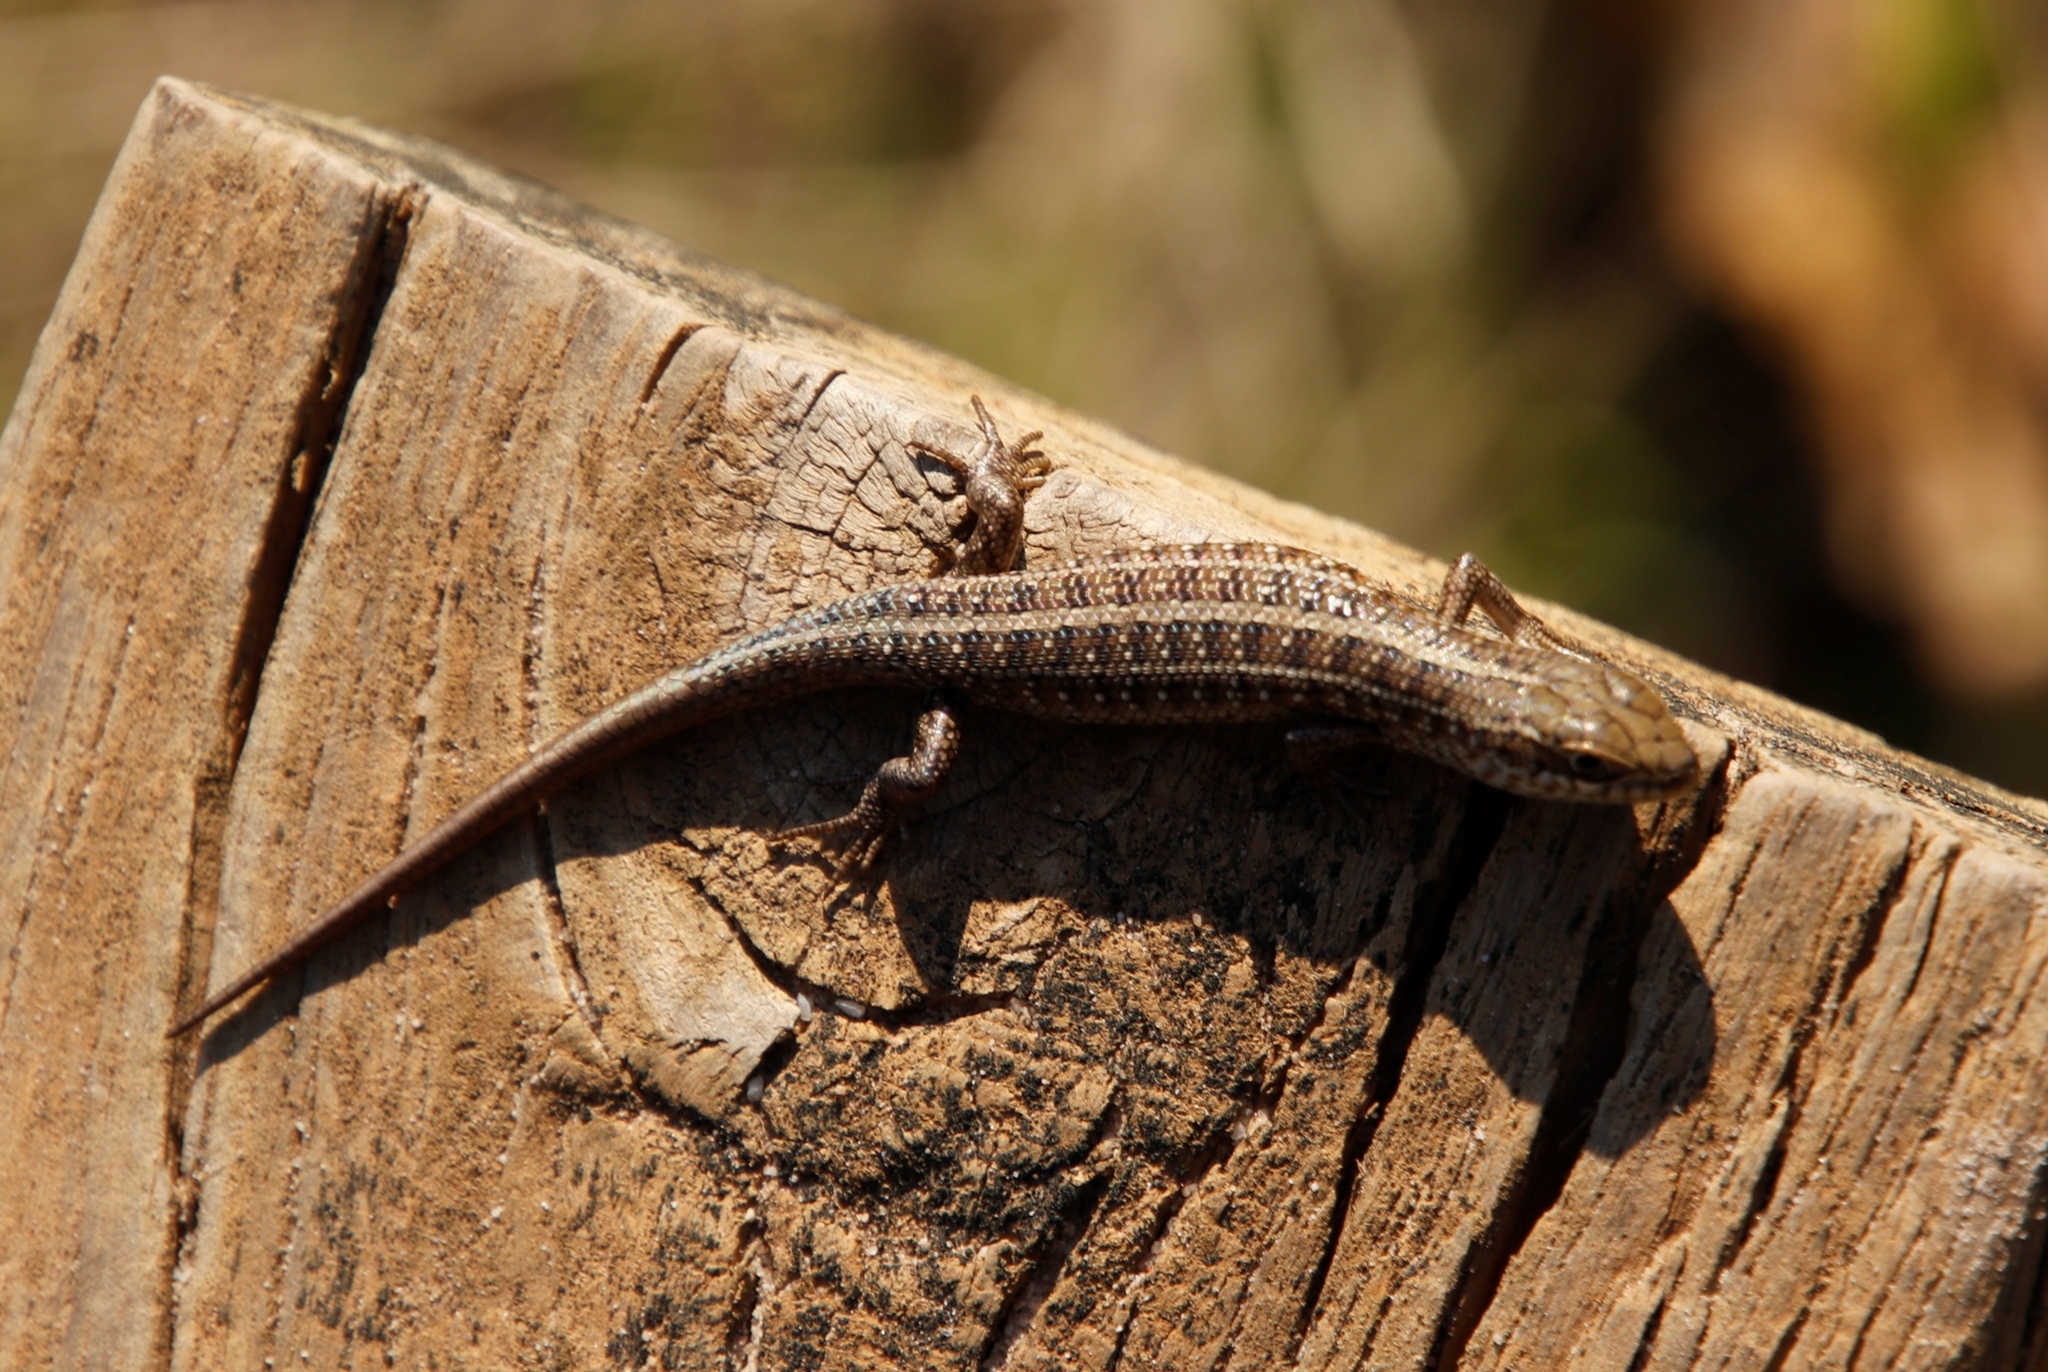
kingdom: Animalia
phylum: Chordata
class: Squamata
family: Scincidae
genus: Trachylepis
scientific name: Trachylepis capensis
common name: Cape skink
